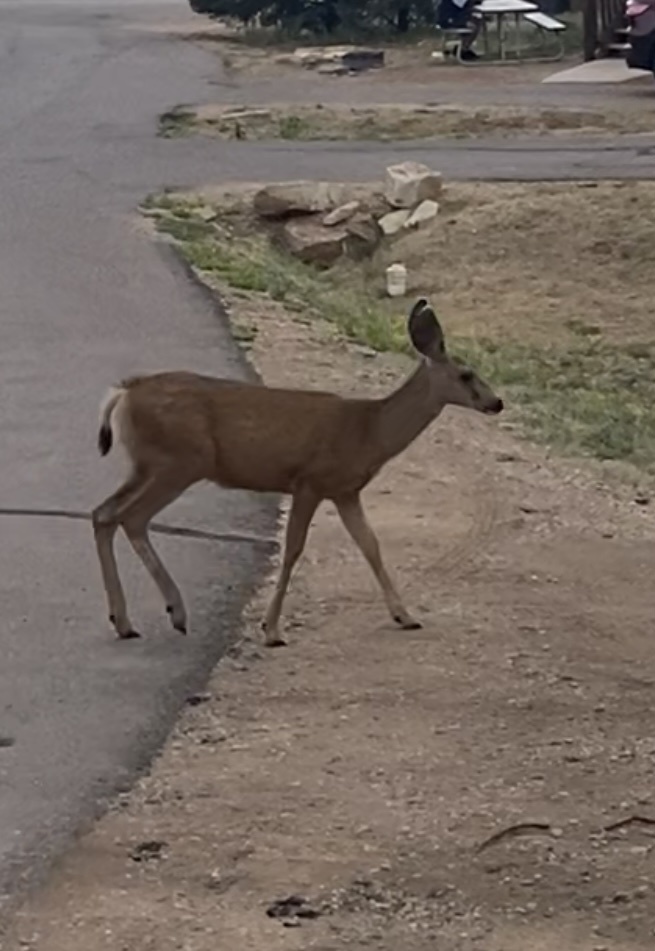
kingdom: Animalia
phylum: Chordata
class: Mammalia
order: Artiodactyla
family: Cervidae
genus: Odocoileus
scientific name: Odocoileus hemionus
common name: Mule deer
